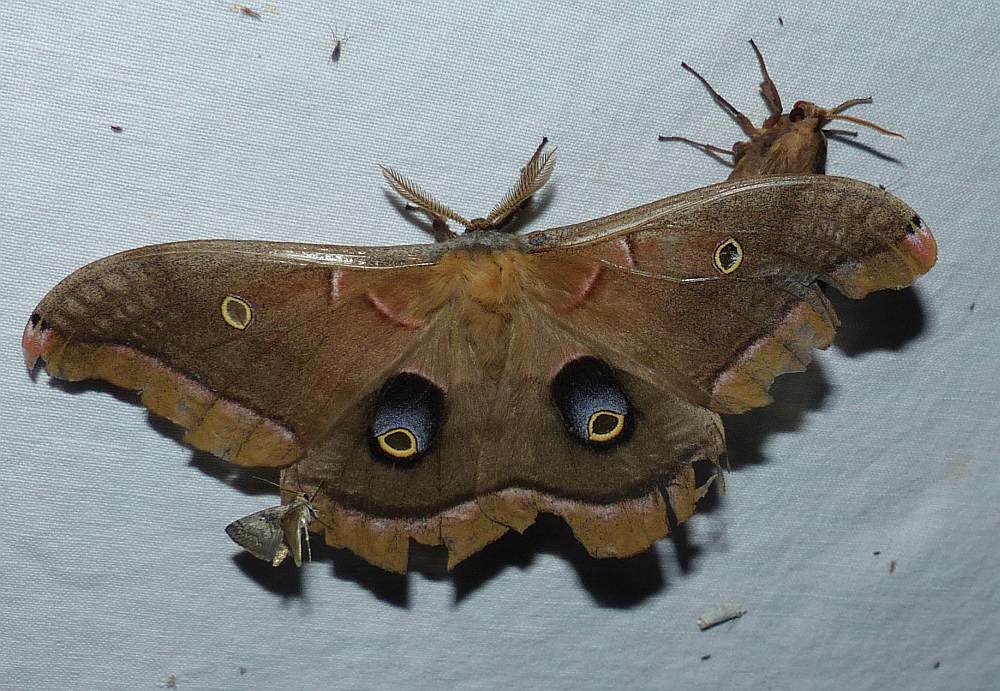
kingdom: Animalia
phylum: Arthropoda
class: Insecta
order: Lepidoptera
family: Saturniidae
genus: Antheraea
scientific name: Antheraea polyphemus
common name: Polyphemus moth
